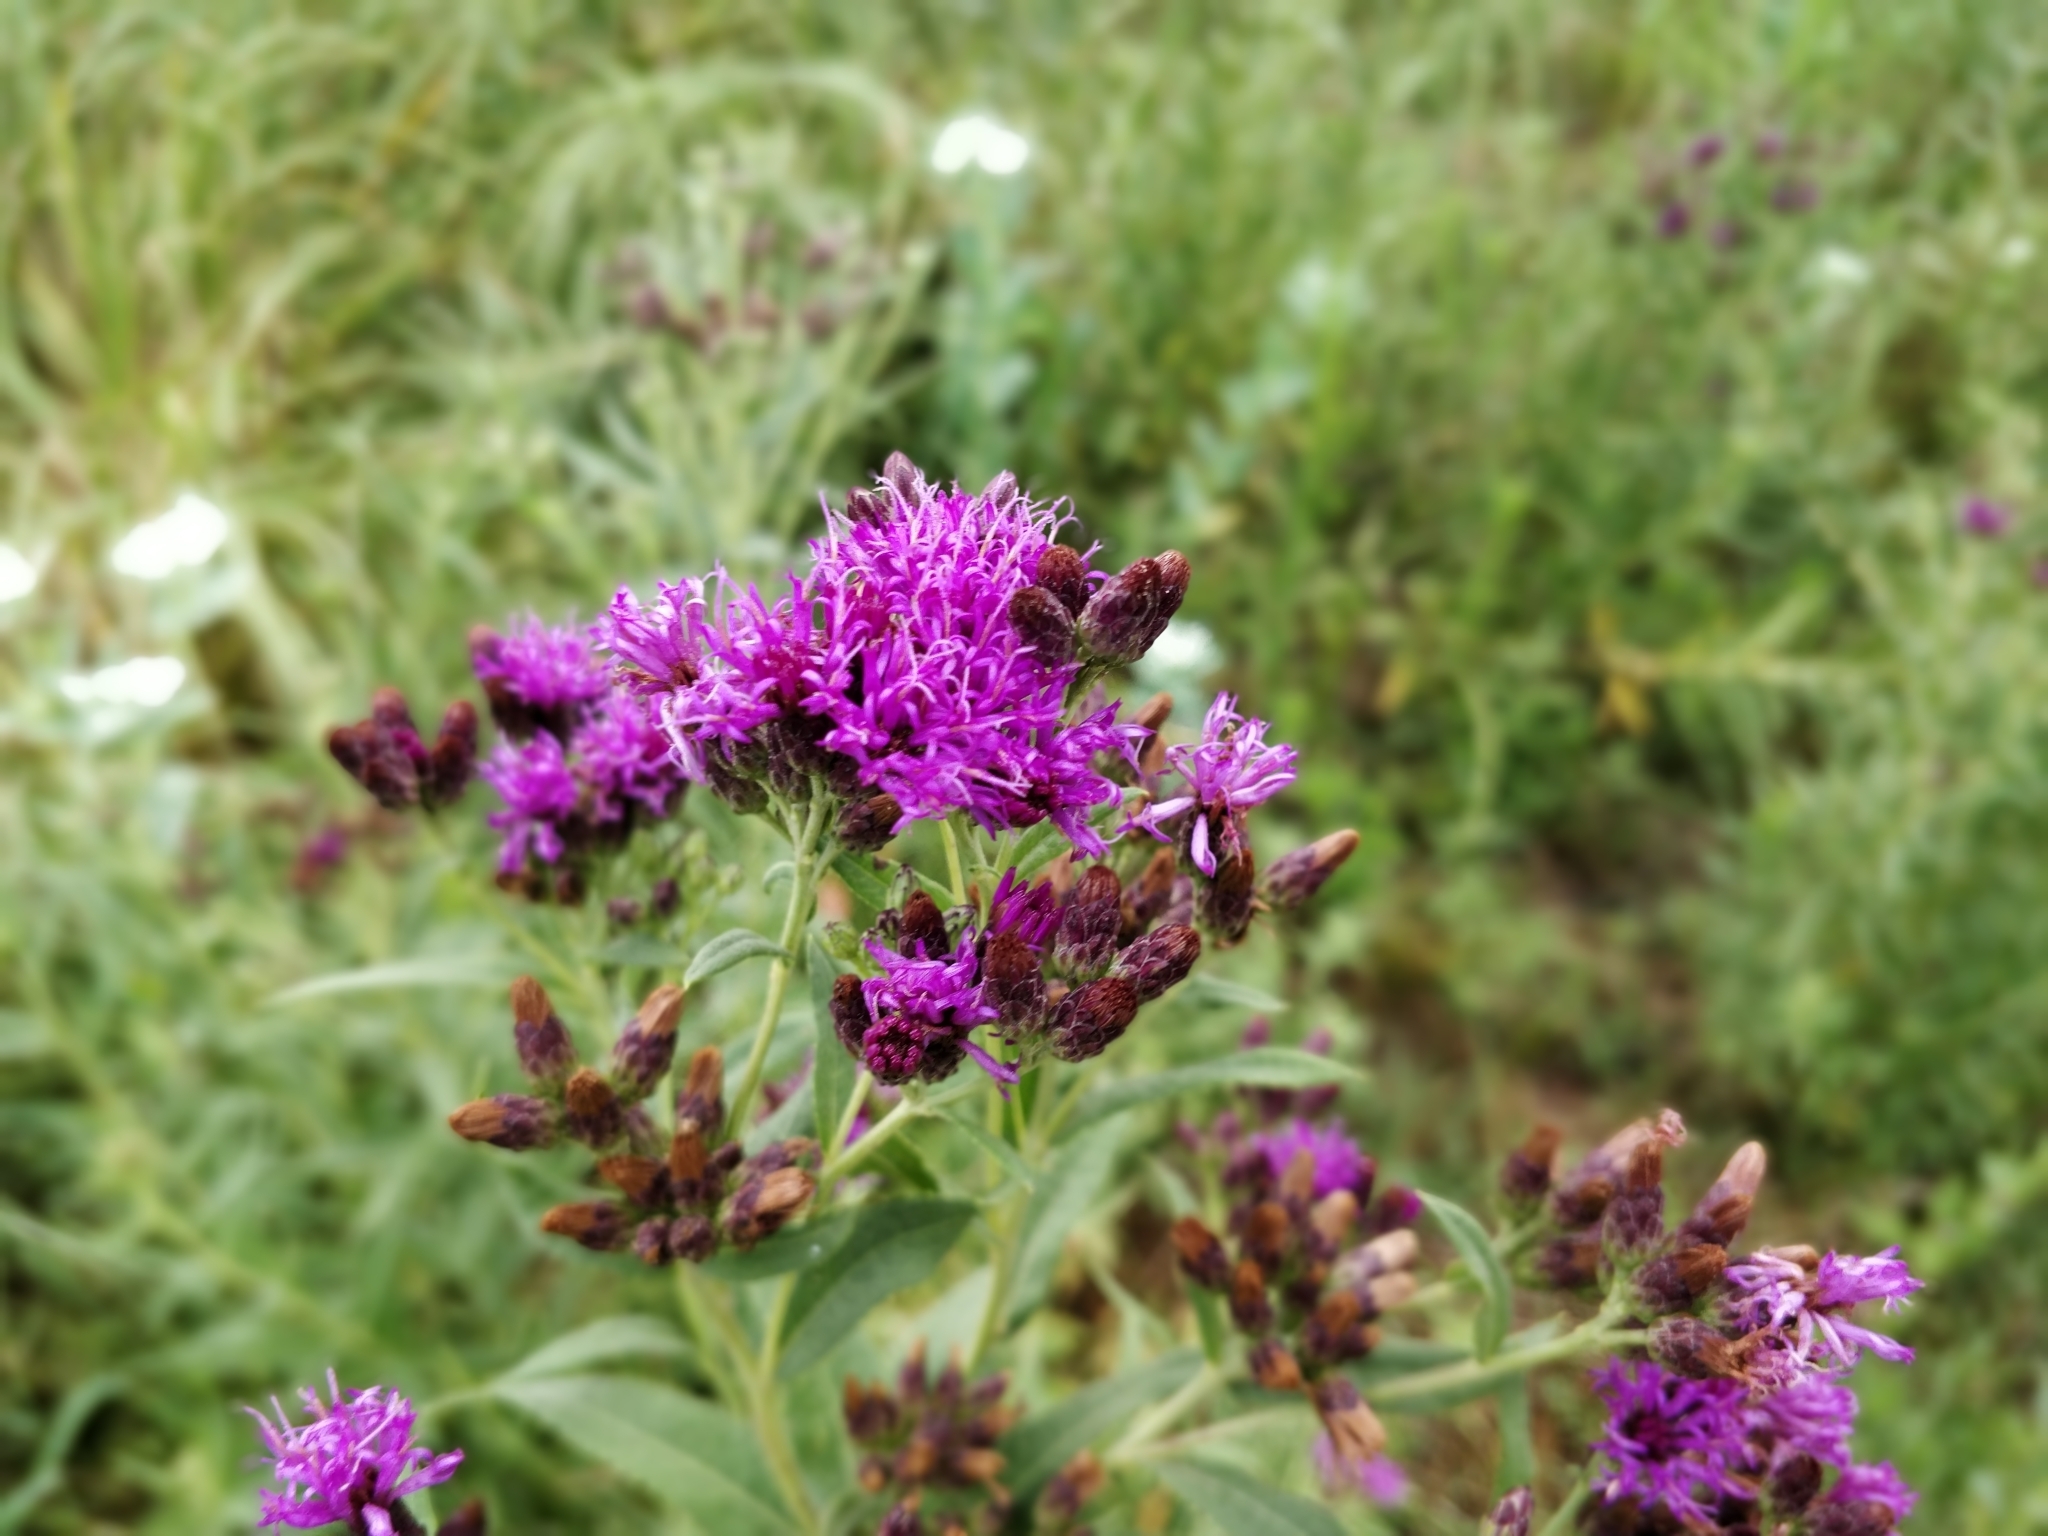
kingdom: Plantae
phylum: Tracheophyta
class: Magnoliopsida
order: Asterales
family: Asteraceae
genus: Vernonia
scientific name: Vernonia fasciculata
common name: Fascicled ironweed
